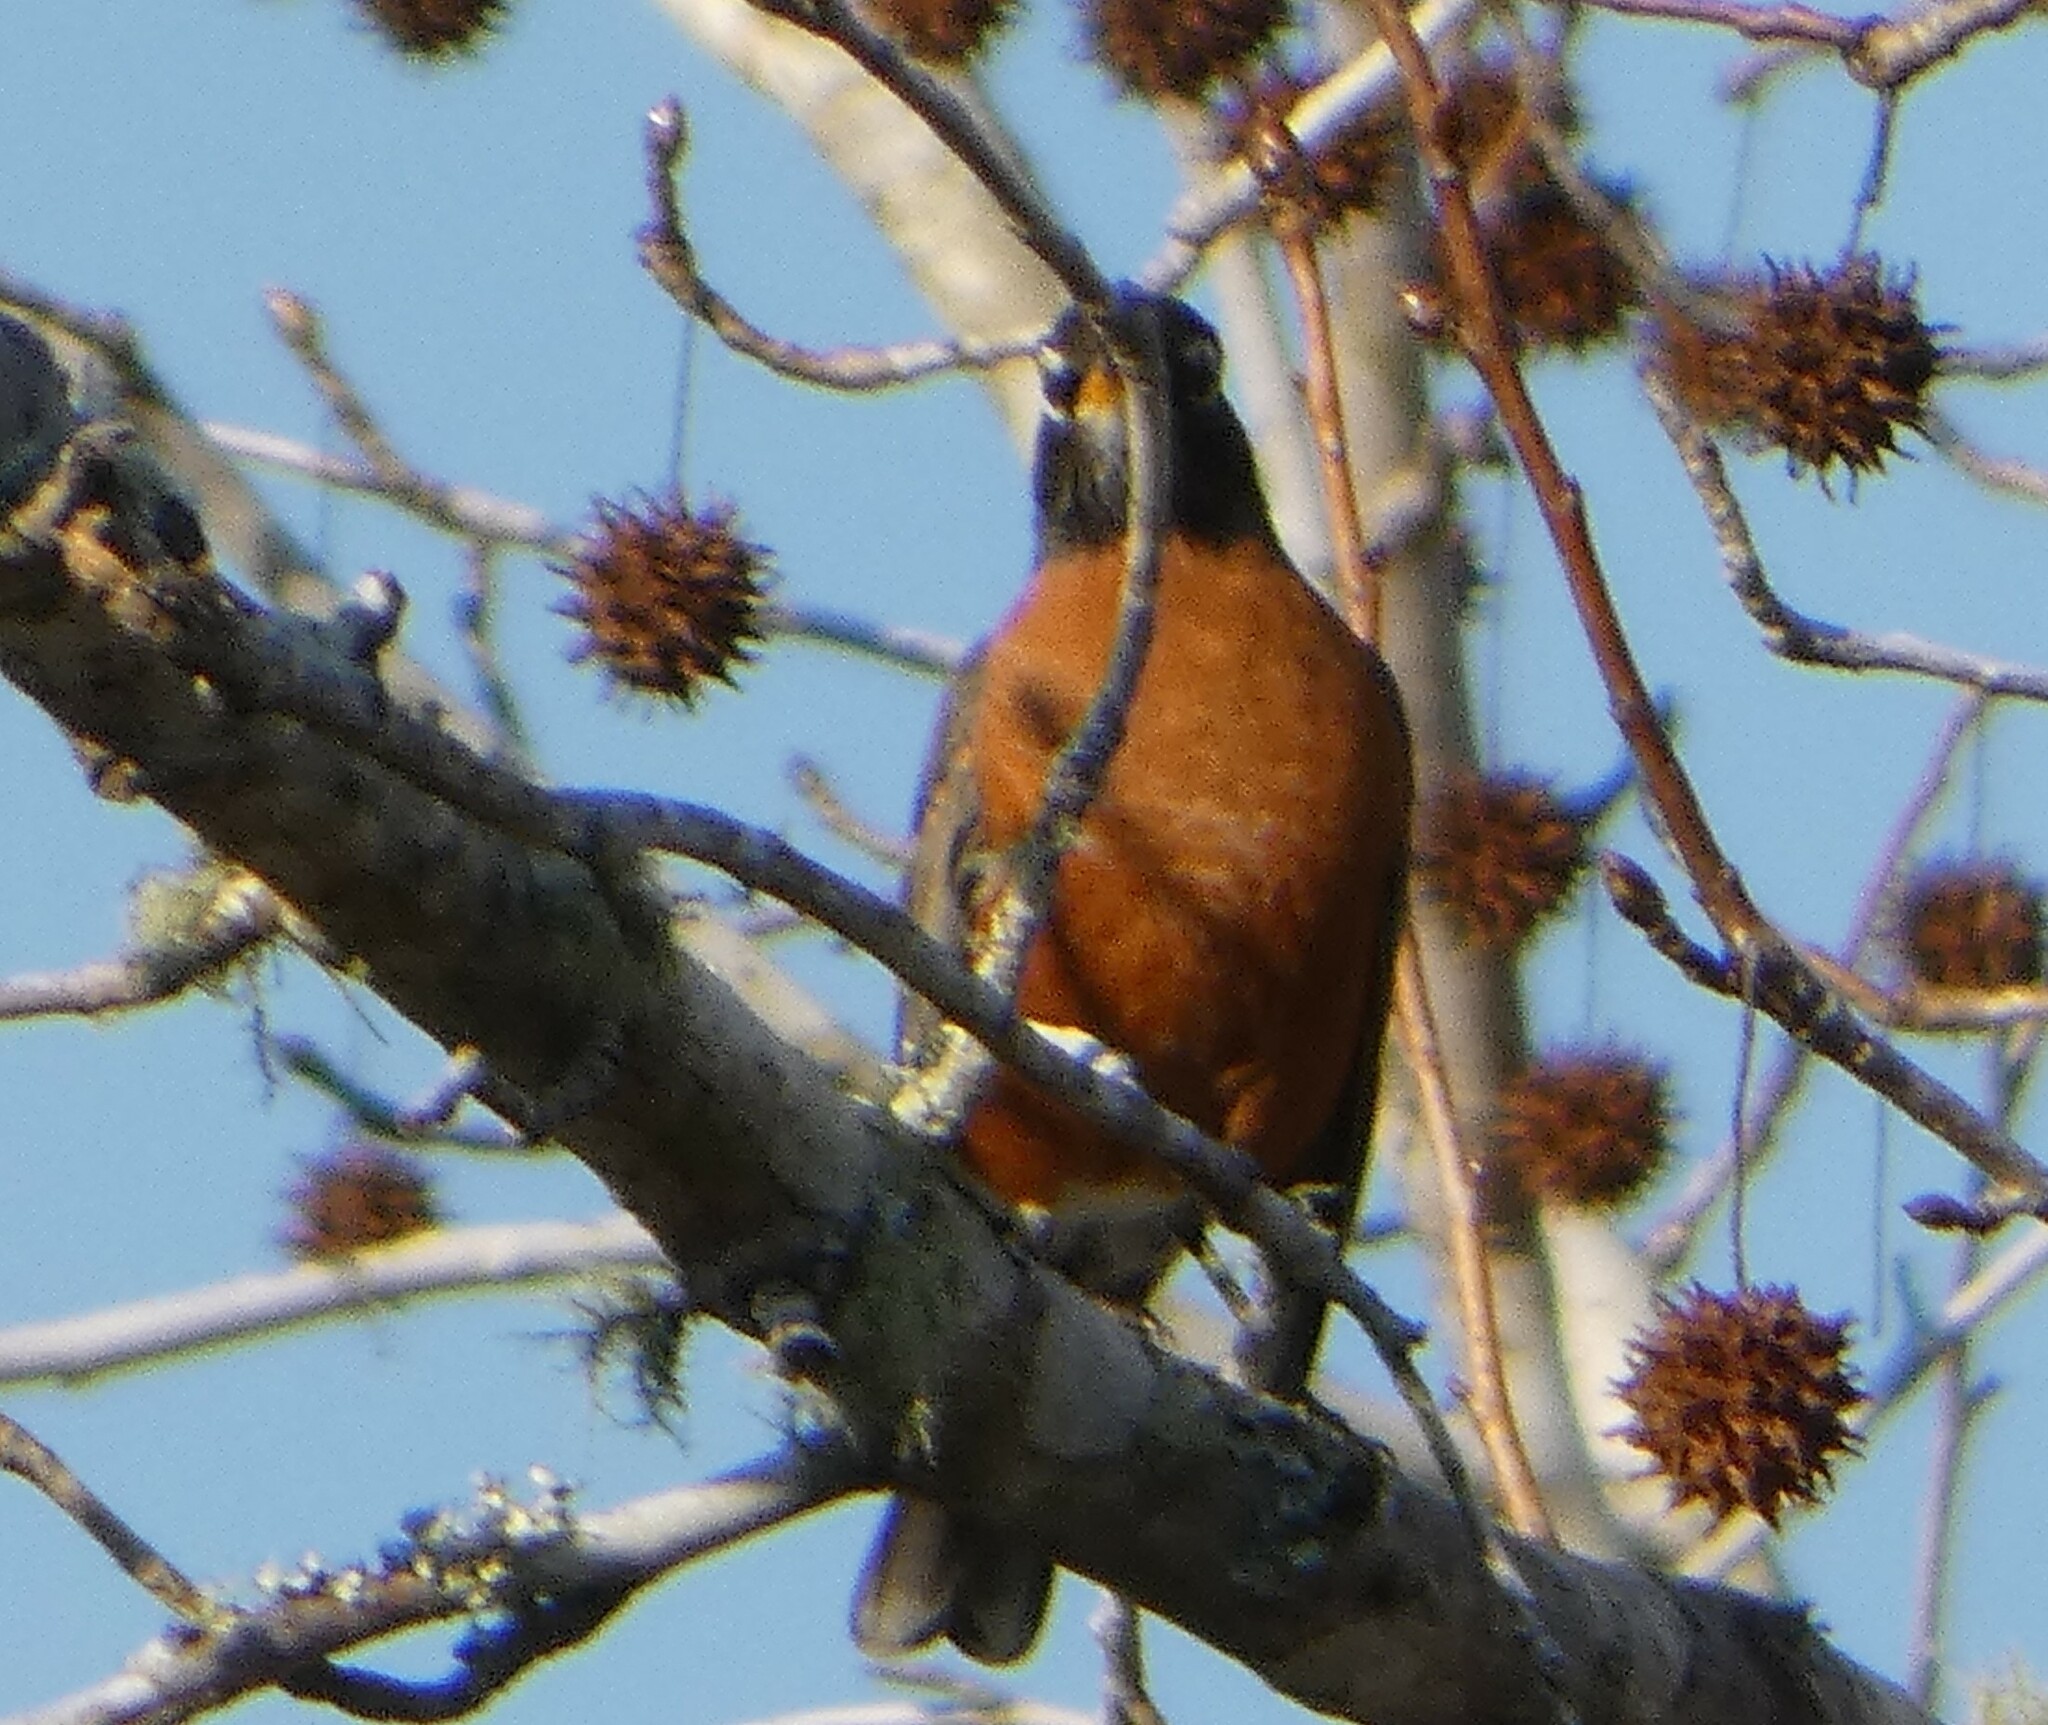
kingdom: Animalia
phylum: Chordata
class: Aves
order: Passeriformes
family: Turdidae
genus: Turdus
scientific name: Turdus migratorius
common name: American robin
